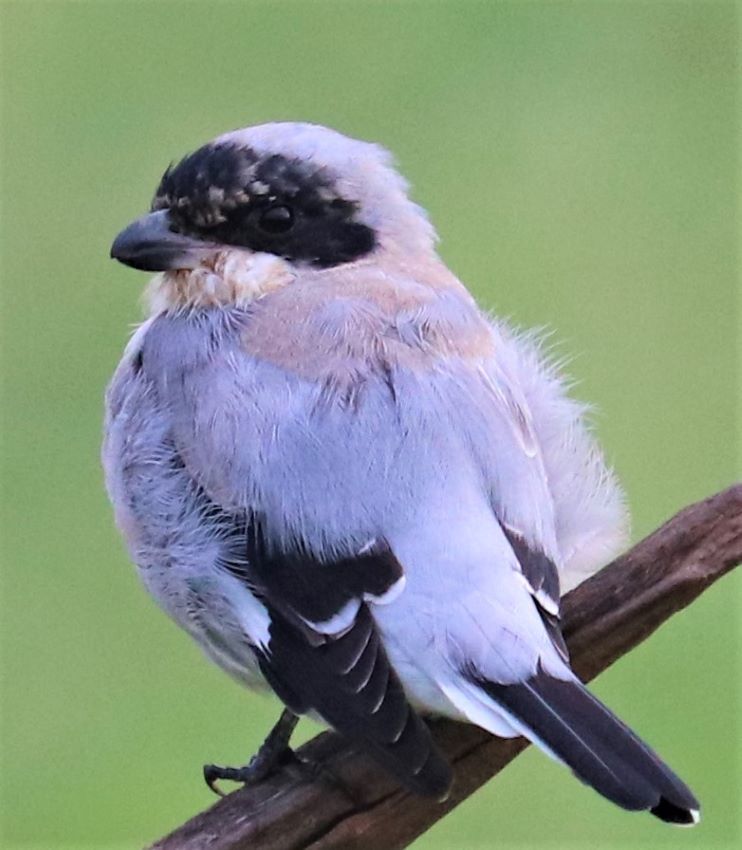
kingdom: Animalia
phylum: Chordata
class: Aves
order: Passeriformes
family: Laniidae
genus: Lanius
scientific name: Lanius minor
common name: Lesser grey shrike
